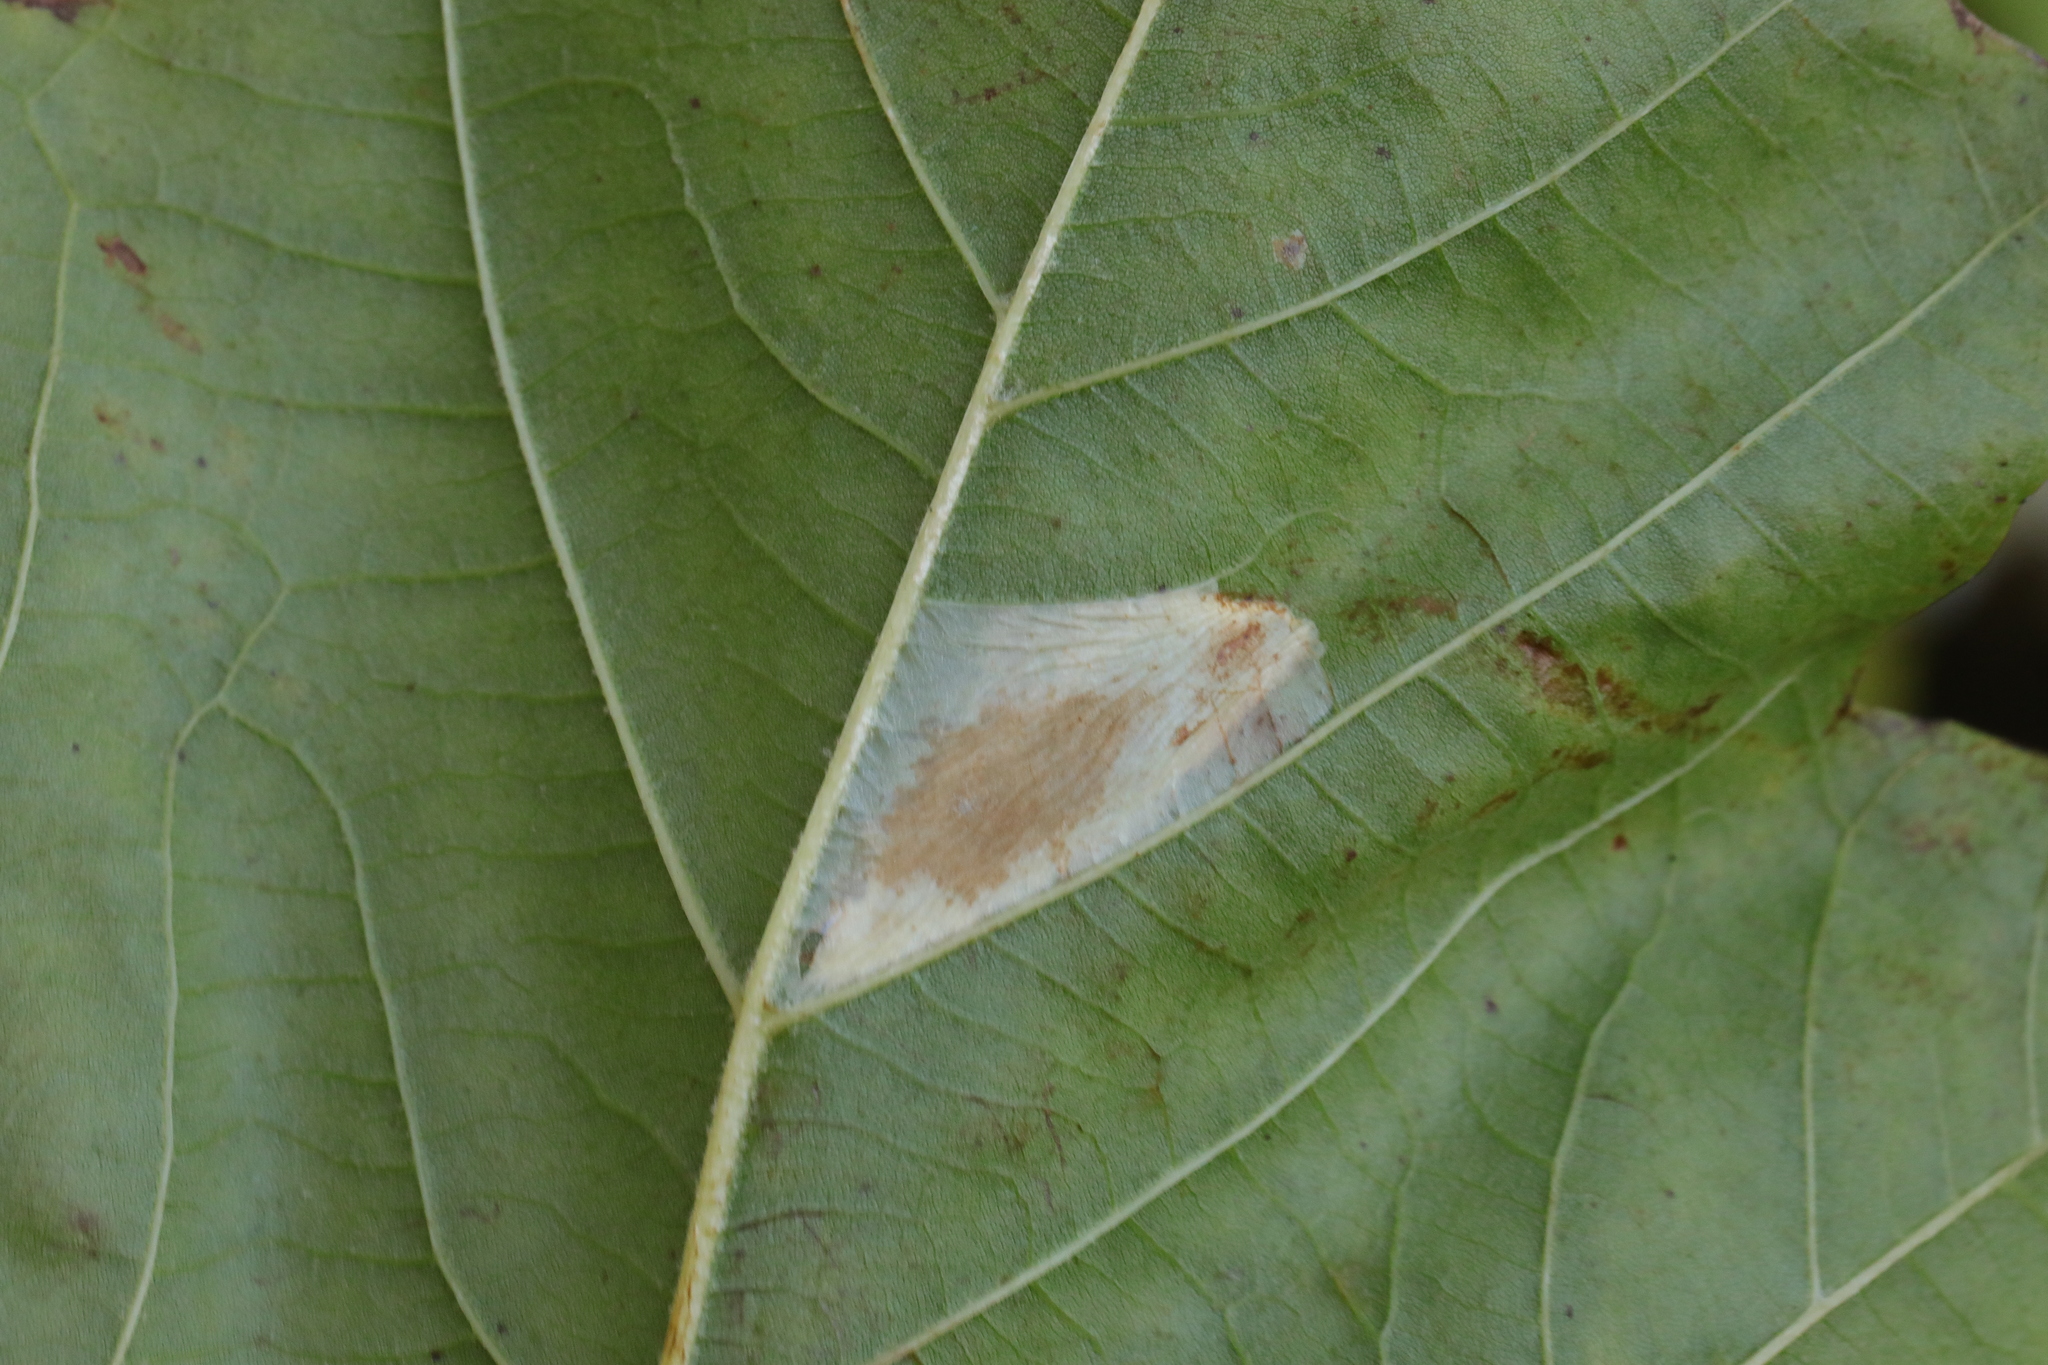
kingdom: Animalia
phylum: Arthropoda
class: Insecta
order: Lepidoptera
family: Gracillariidae
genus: Phyllonorycter
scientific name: Phyllonorycter platani
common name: London midget
